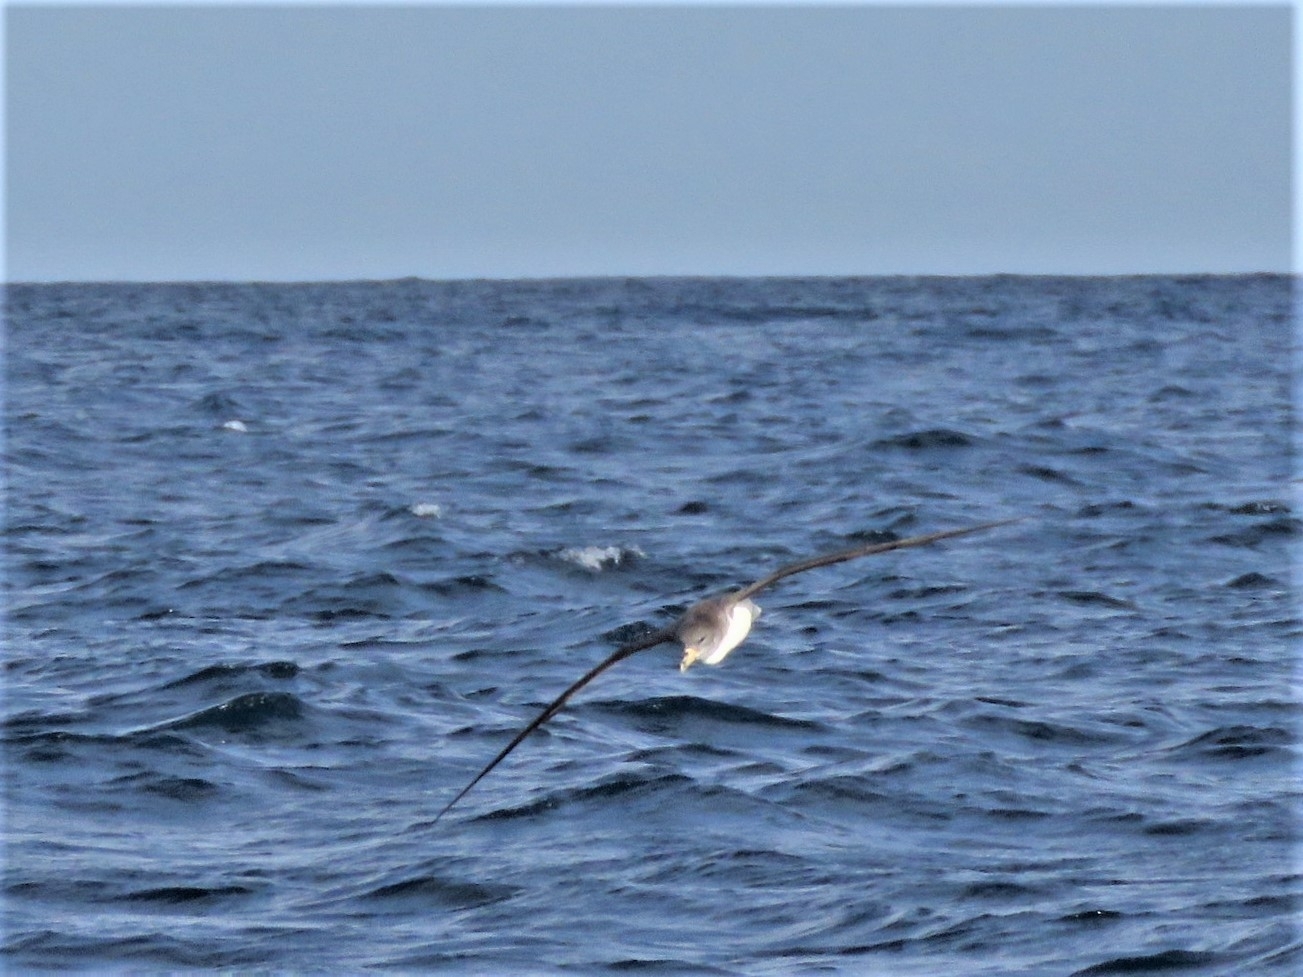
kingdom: Animalia
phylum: Chordata
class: Aves
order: Procellariiformes
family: Procellariidae
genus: Calonectris
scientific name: Calonectris diomedea
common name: Cory's shearwater
